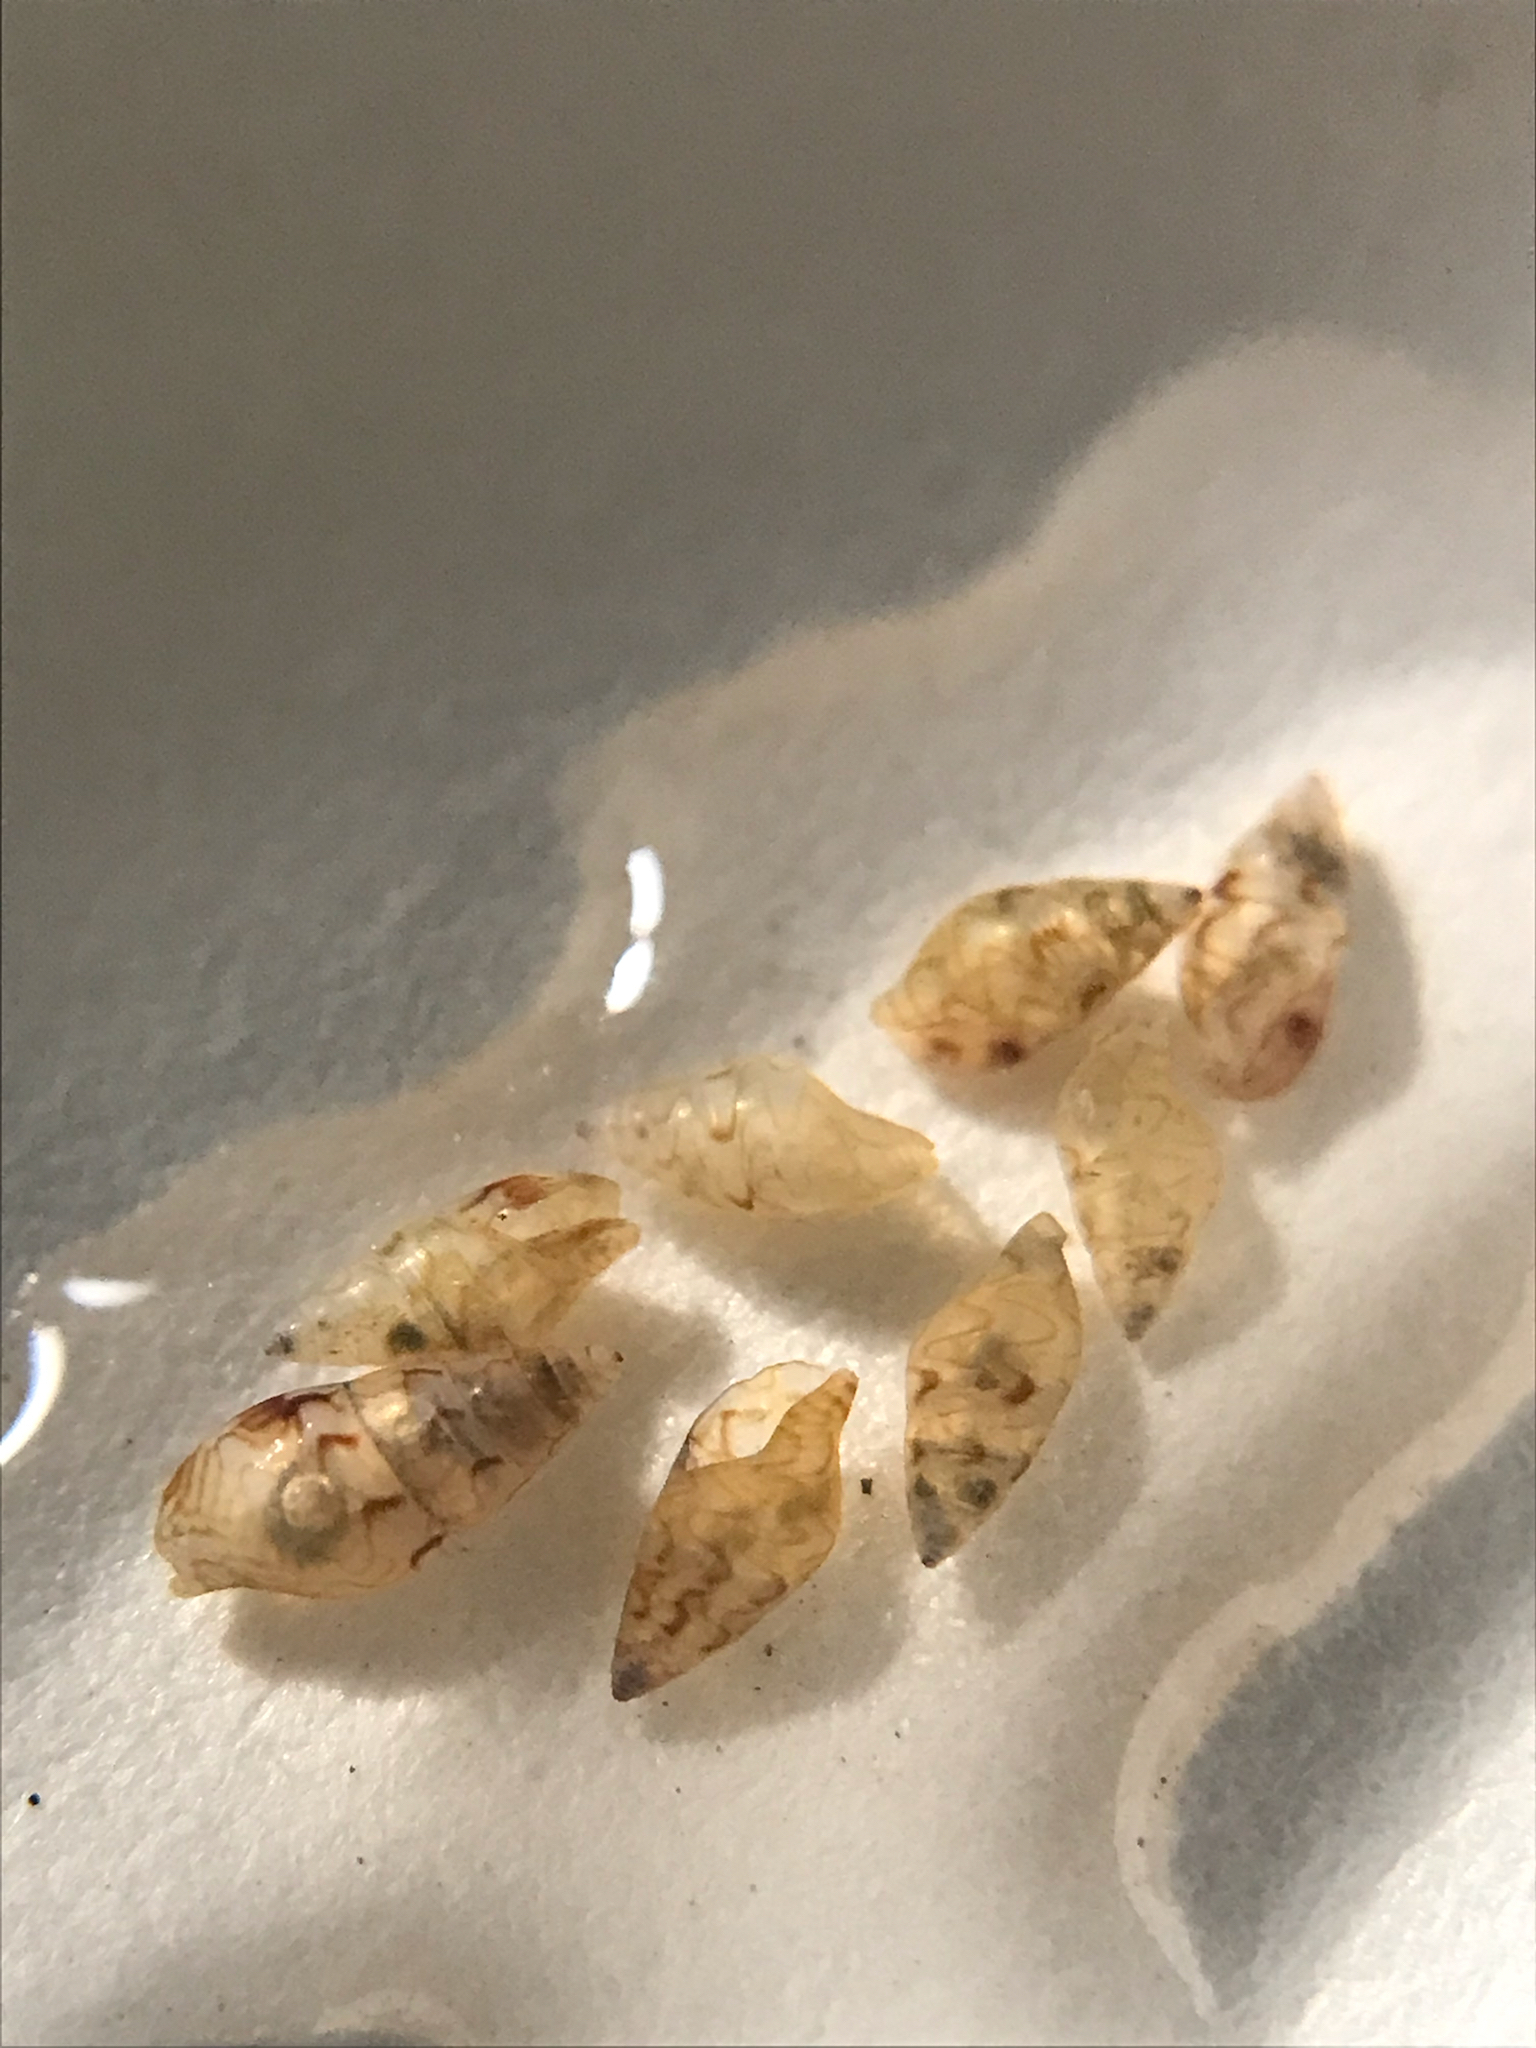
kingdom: Animalia
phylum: Mollusca
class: Gastropoda
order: Neogastropoda
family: Columbellidae
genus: Astyris
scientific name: Astyris lunata
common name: Lunar dovesnail
